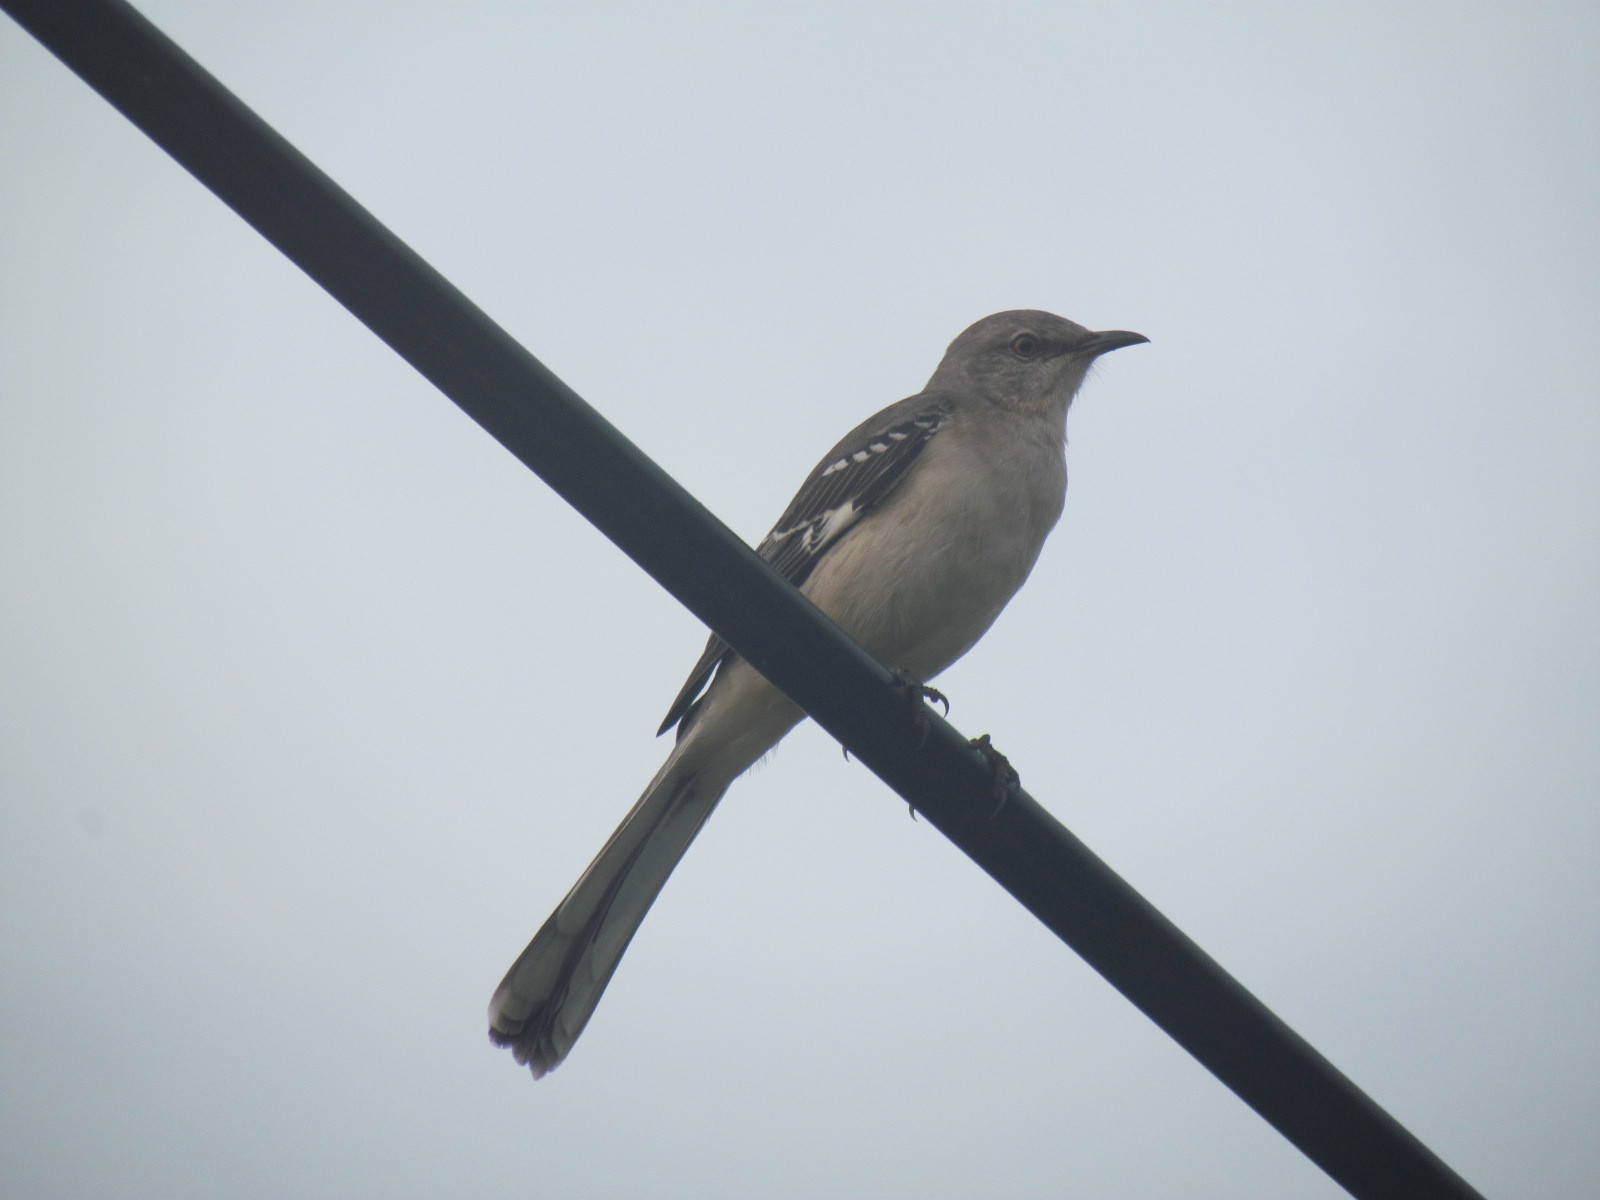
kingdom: Animalia
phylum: Chordata
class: Aves
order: Passeriformes
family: Mimidae
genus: Mimus
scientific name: Mimus polyglottos
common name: Northern mockingbird
